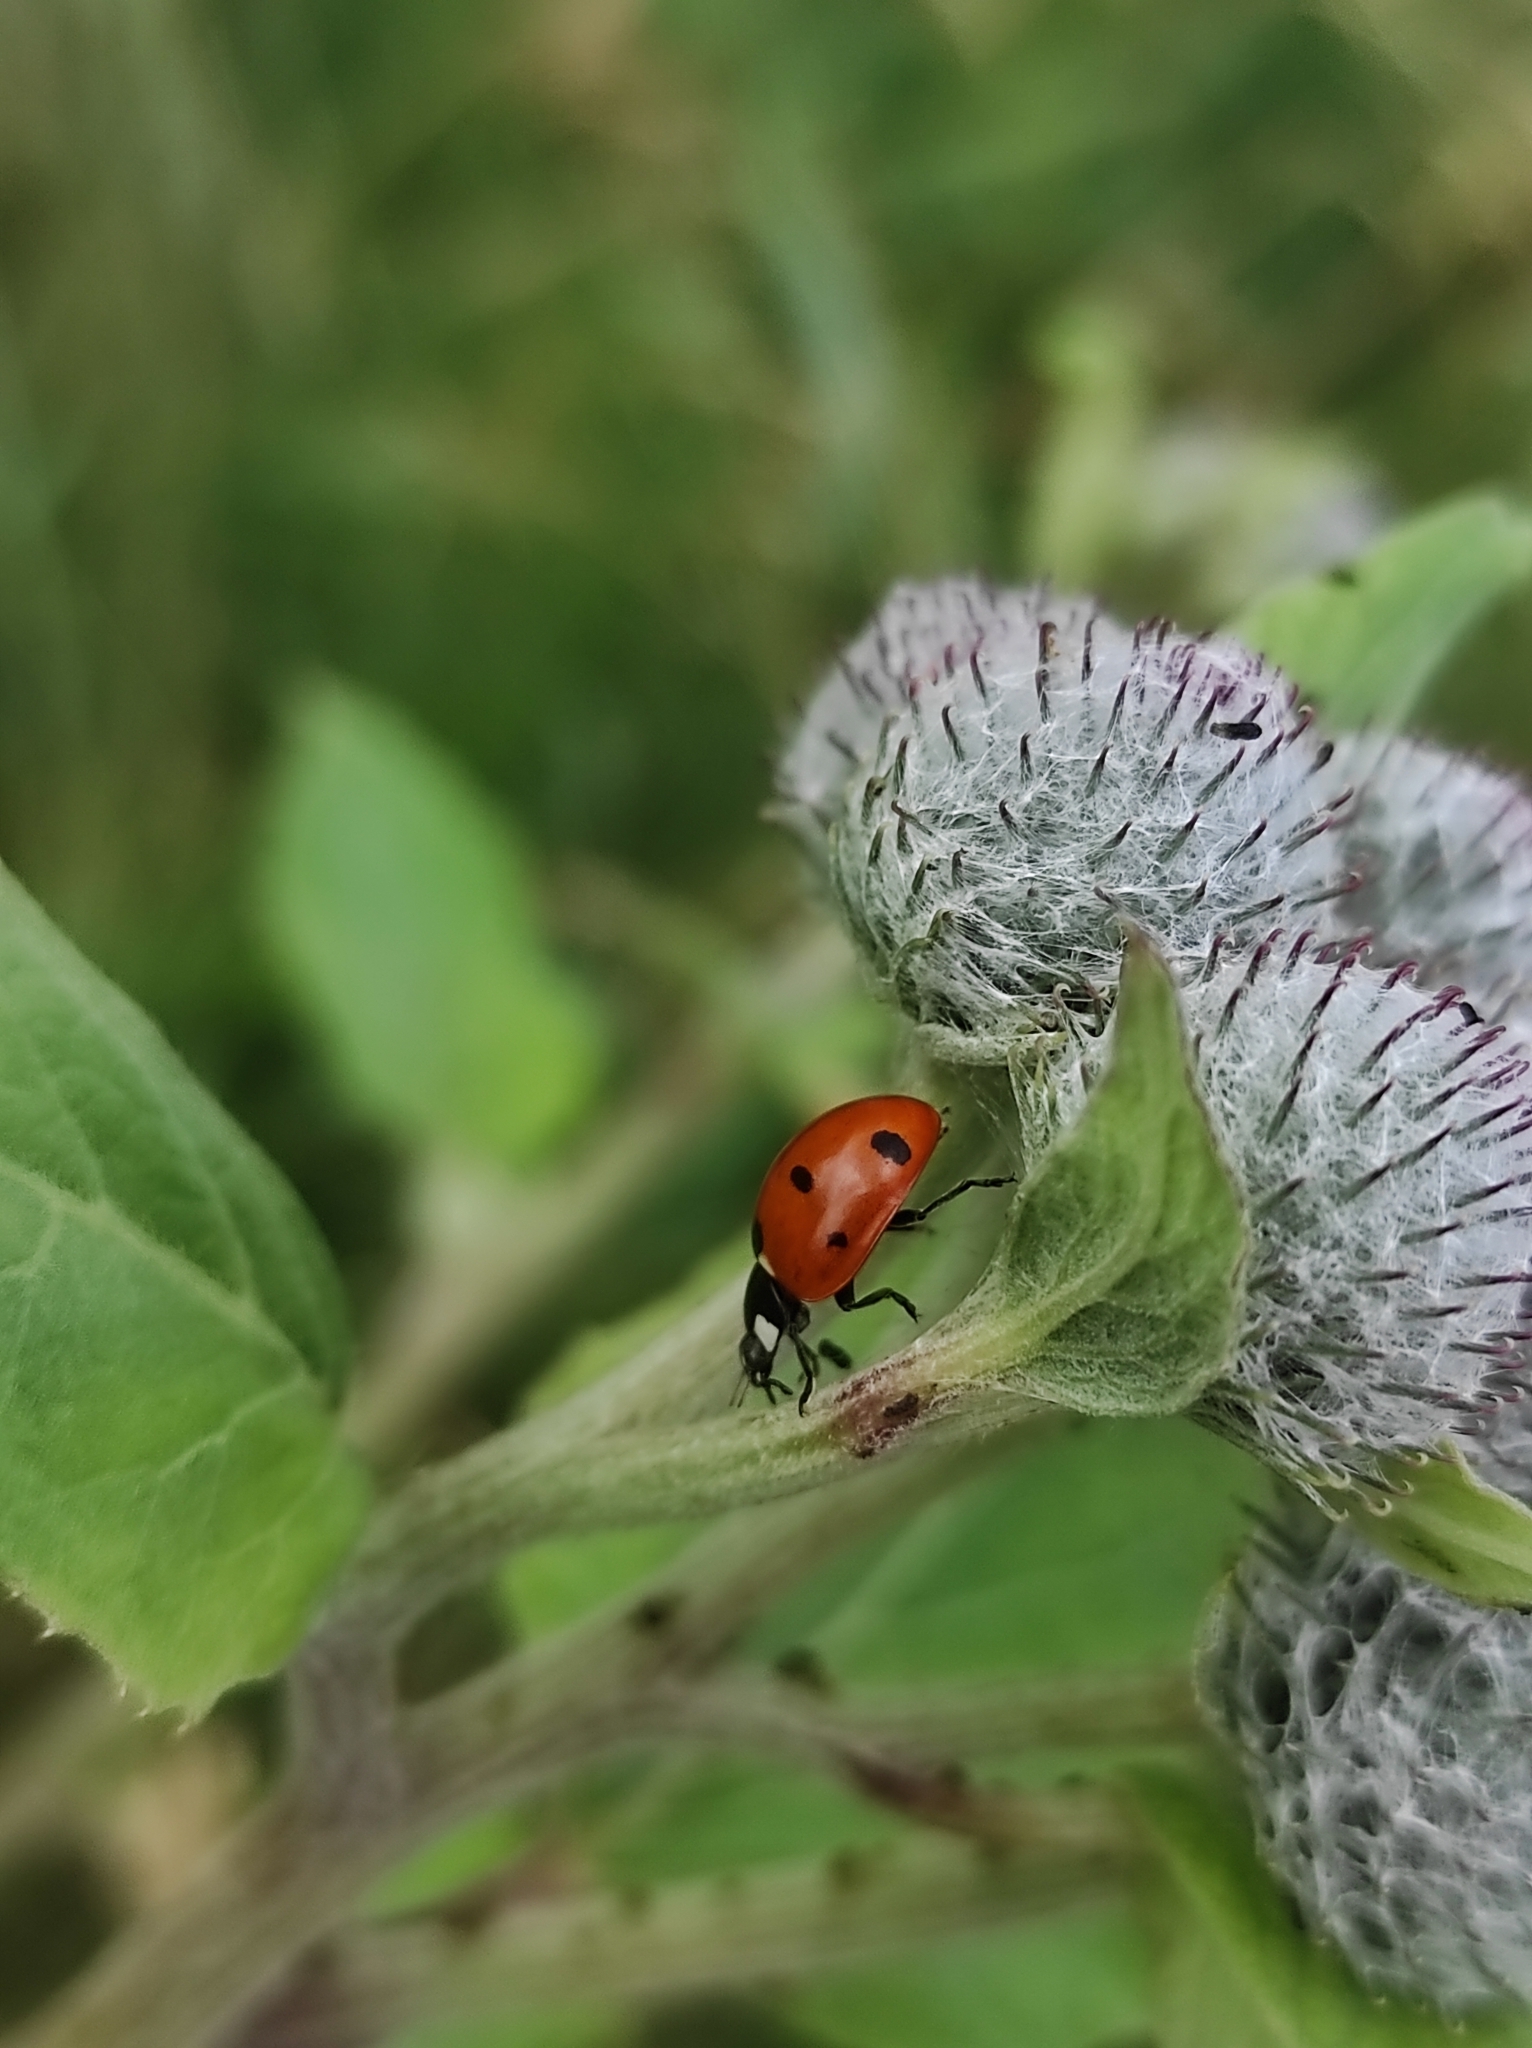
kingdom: Animalia
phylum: Arthropoda
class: Insecta
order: Coleoptera
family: Coccinellidae
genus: Coccinella
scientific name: Coccinella septempunctata
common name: Sevenspotted lady beetle
